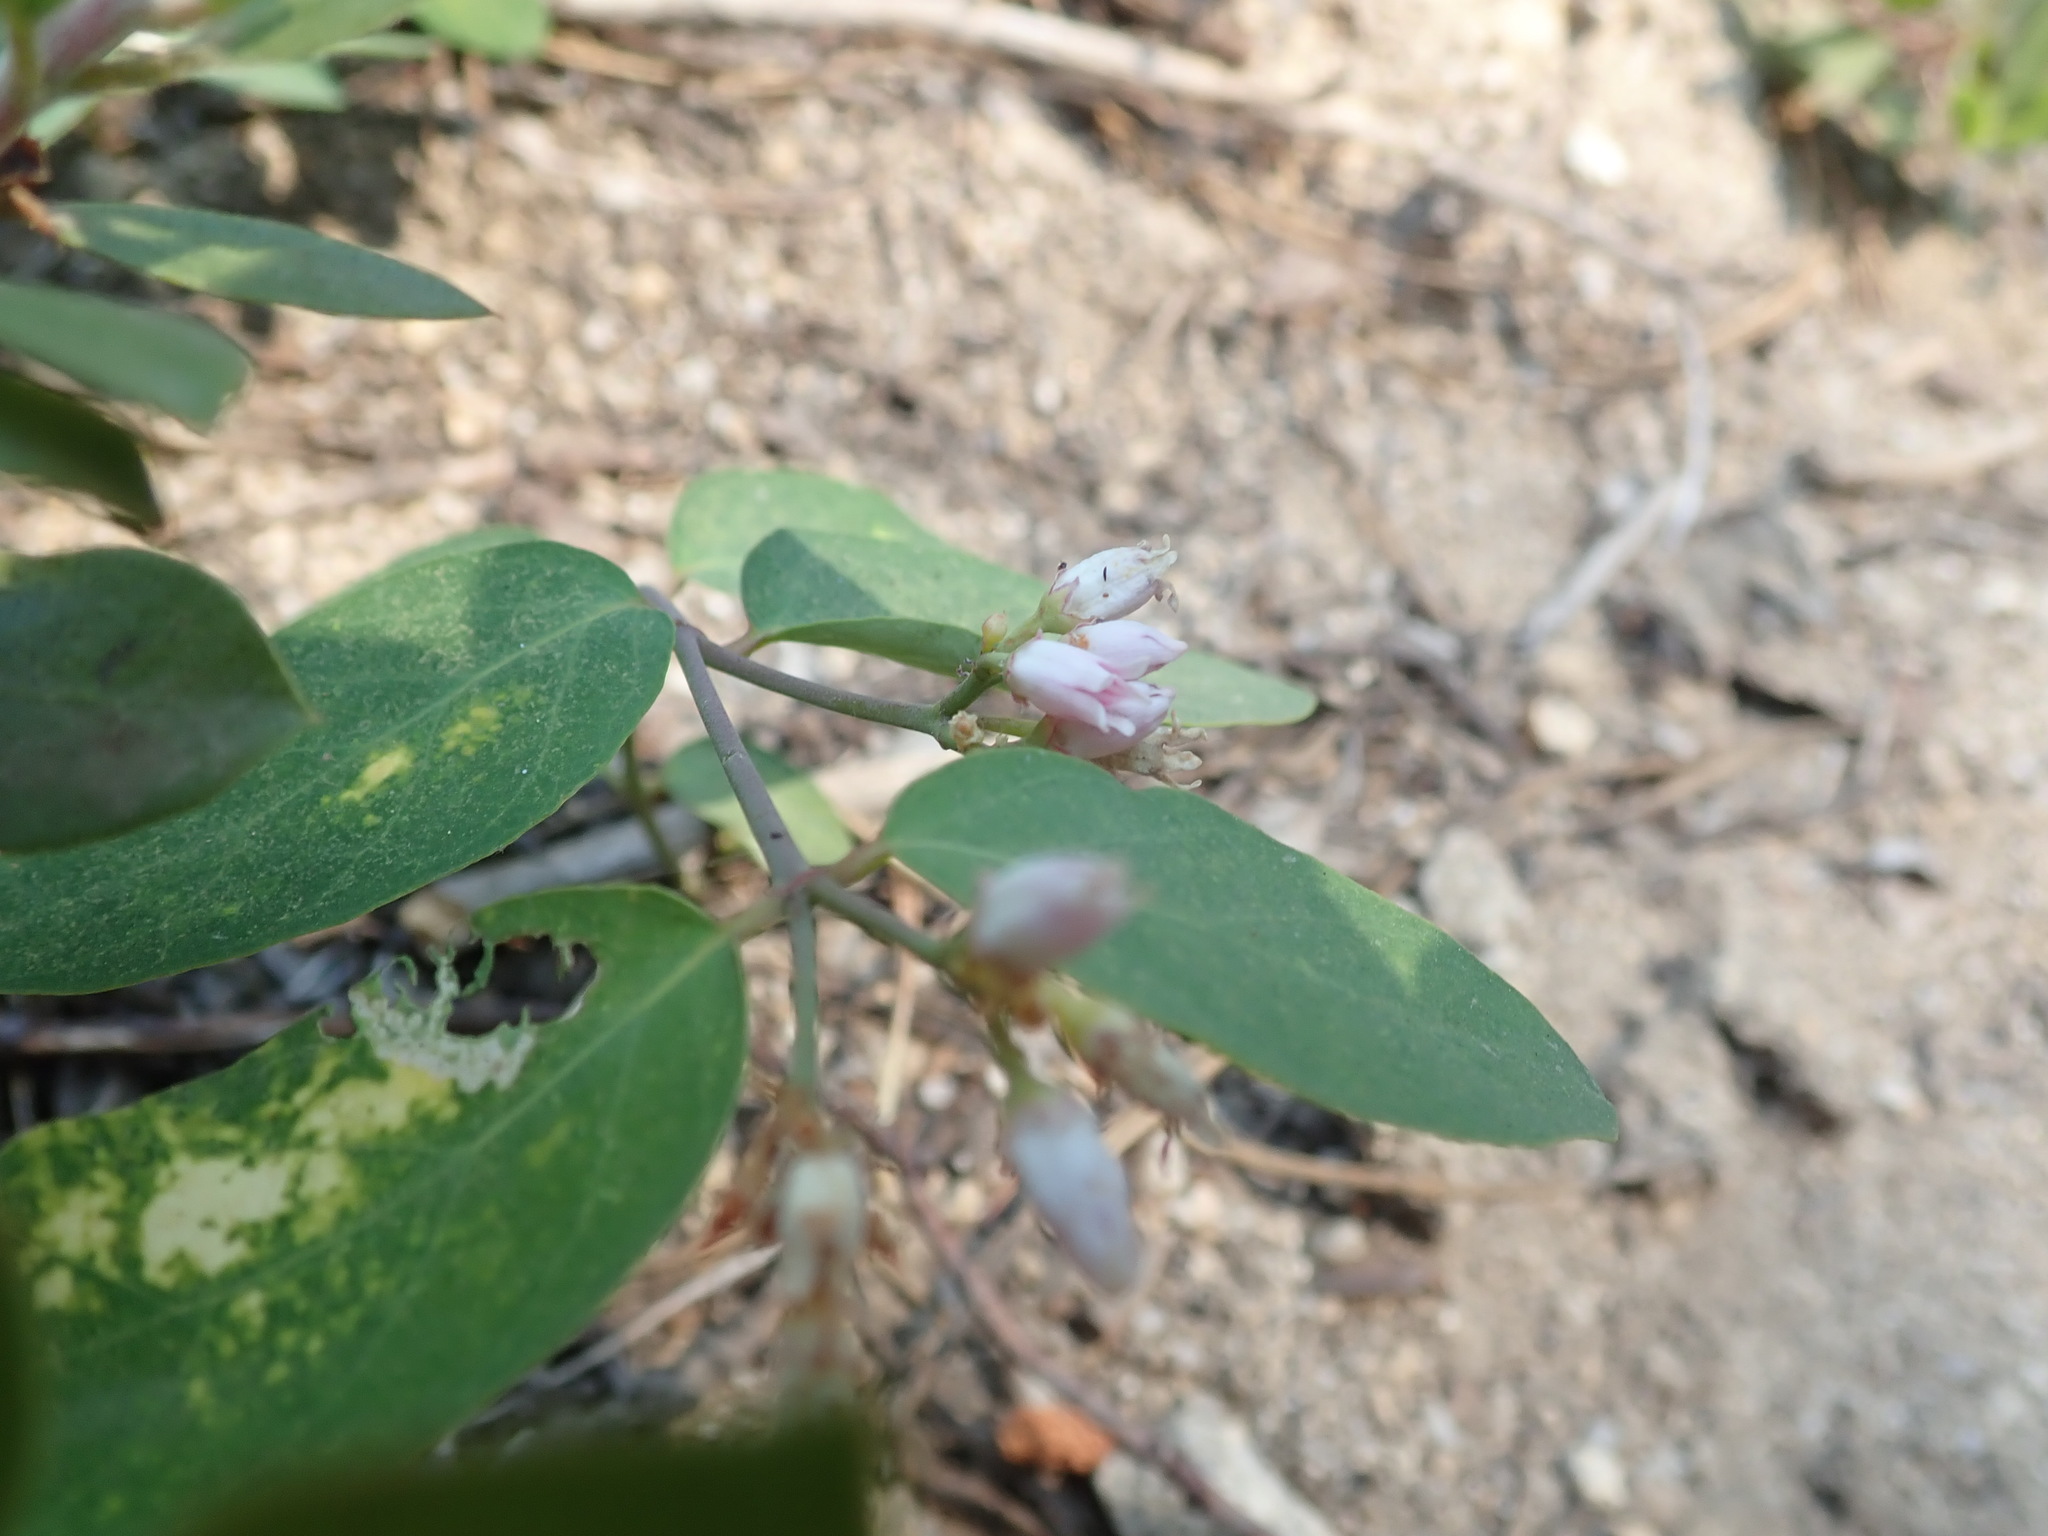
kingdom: Plantae
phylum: Tracheophyta
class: Magnoliopsida
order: Gentianales
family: Apocynaceae
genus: Apocynum
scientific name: Apocynum androsaemifolium
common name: Spreading dogbane
